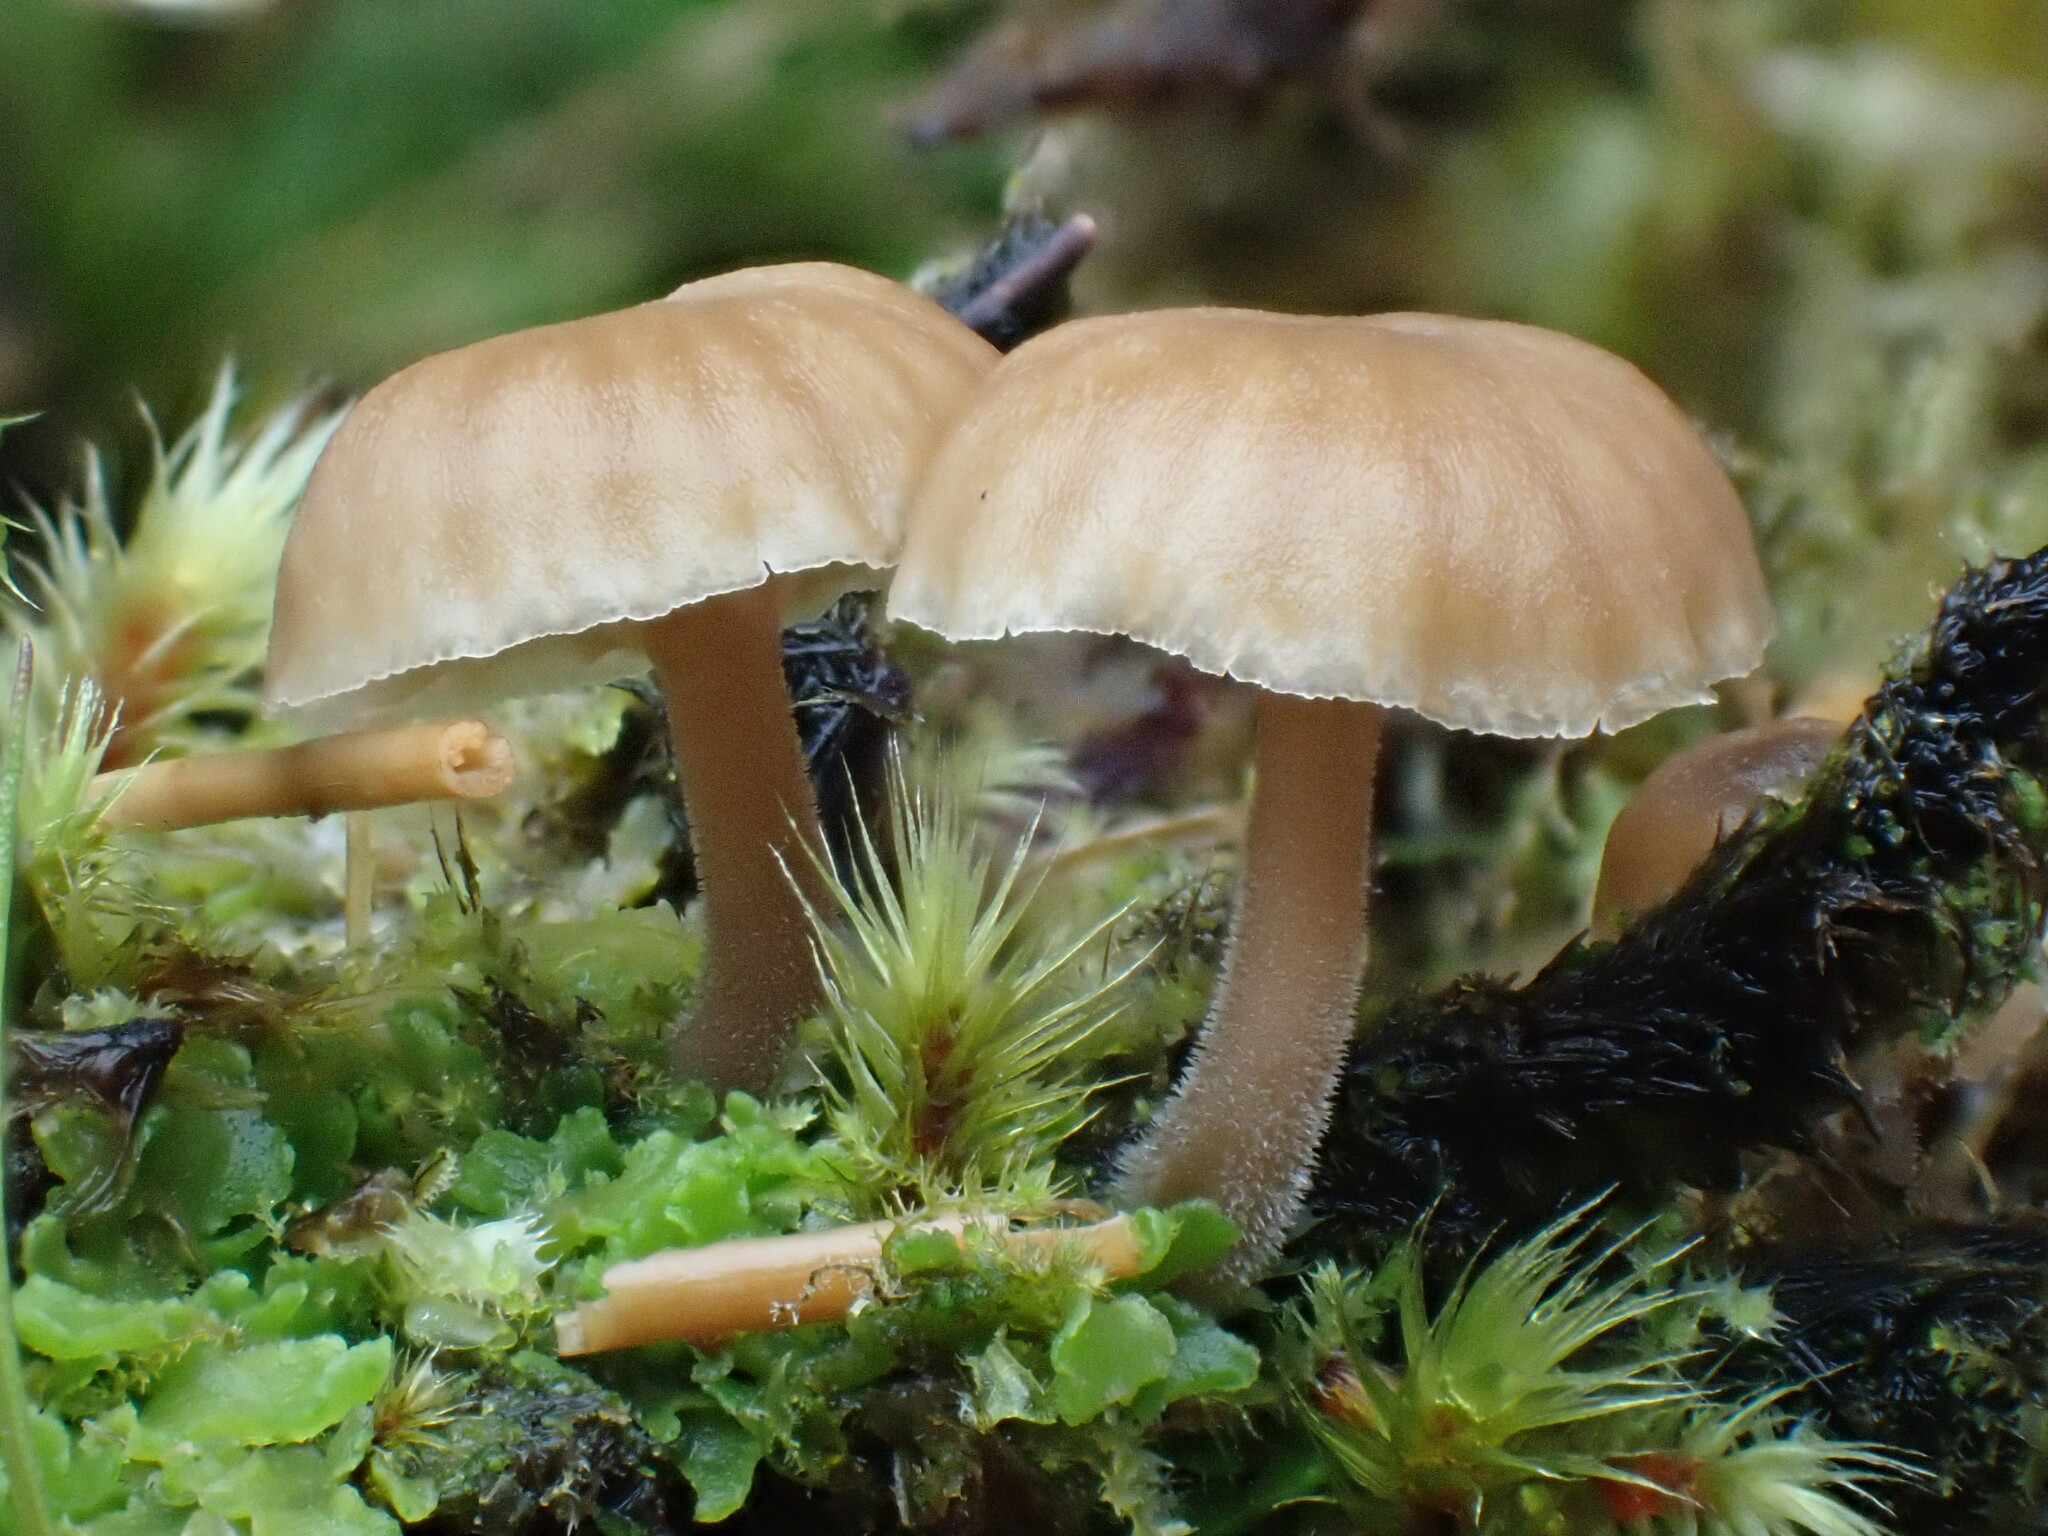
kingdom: Fungi
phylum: Basidiomycota
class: Agaricomycetes
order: Agaricales
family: Tricholomataceae
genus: Omphalina
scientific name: Omphalina
